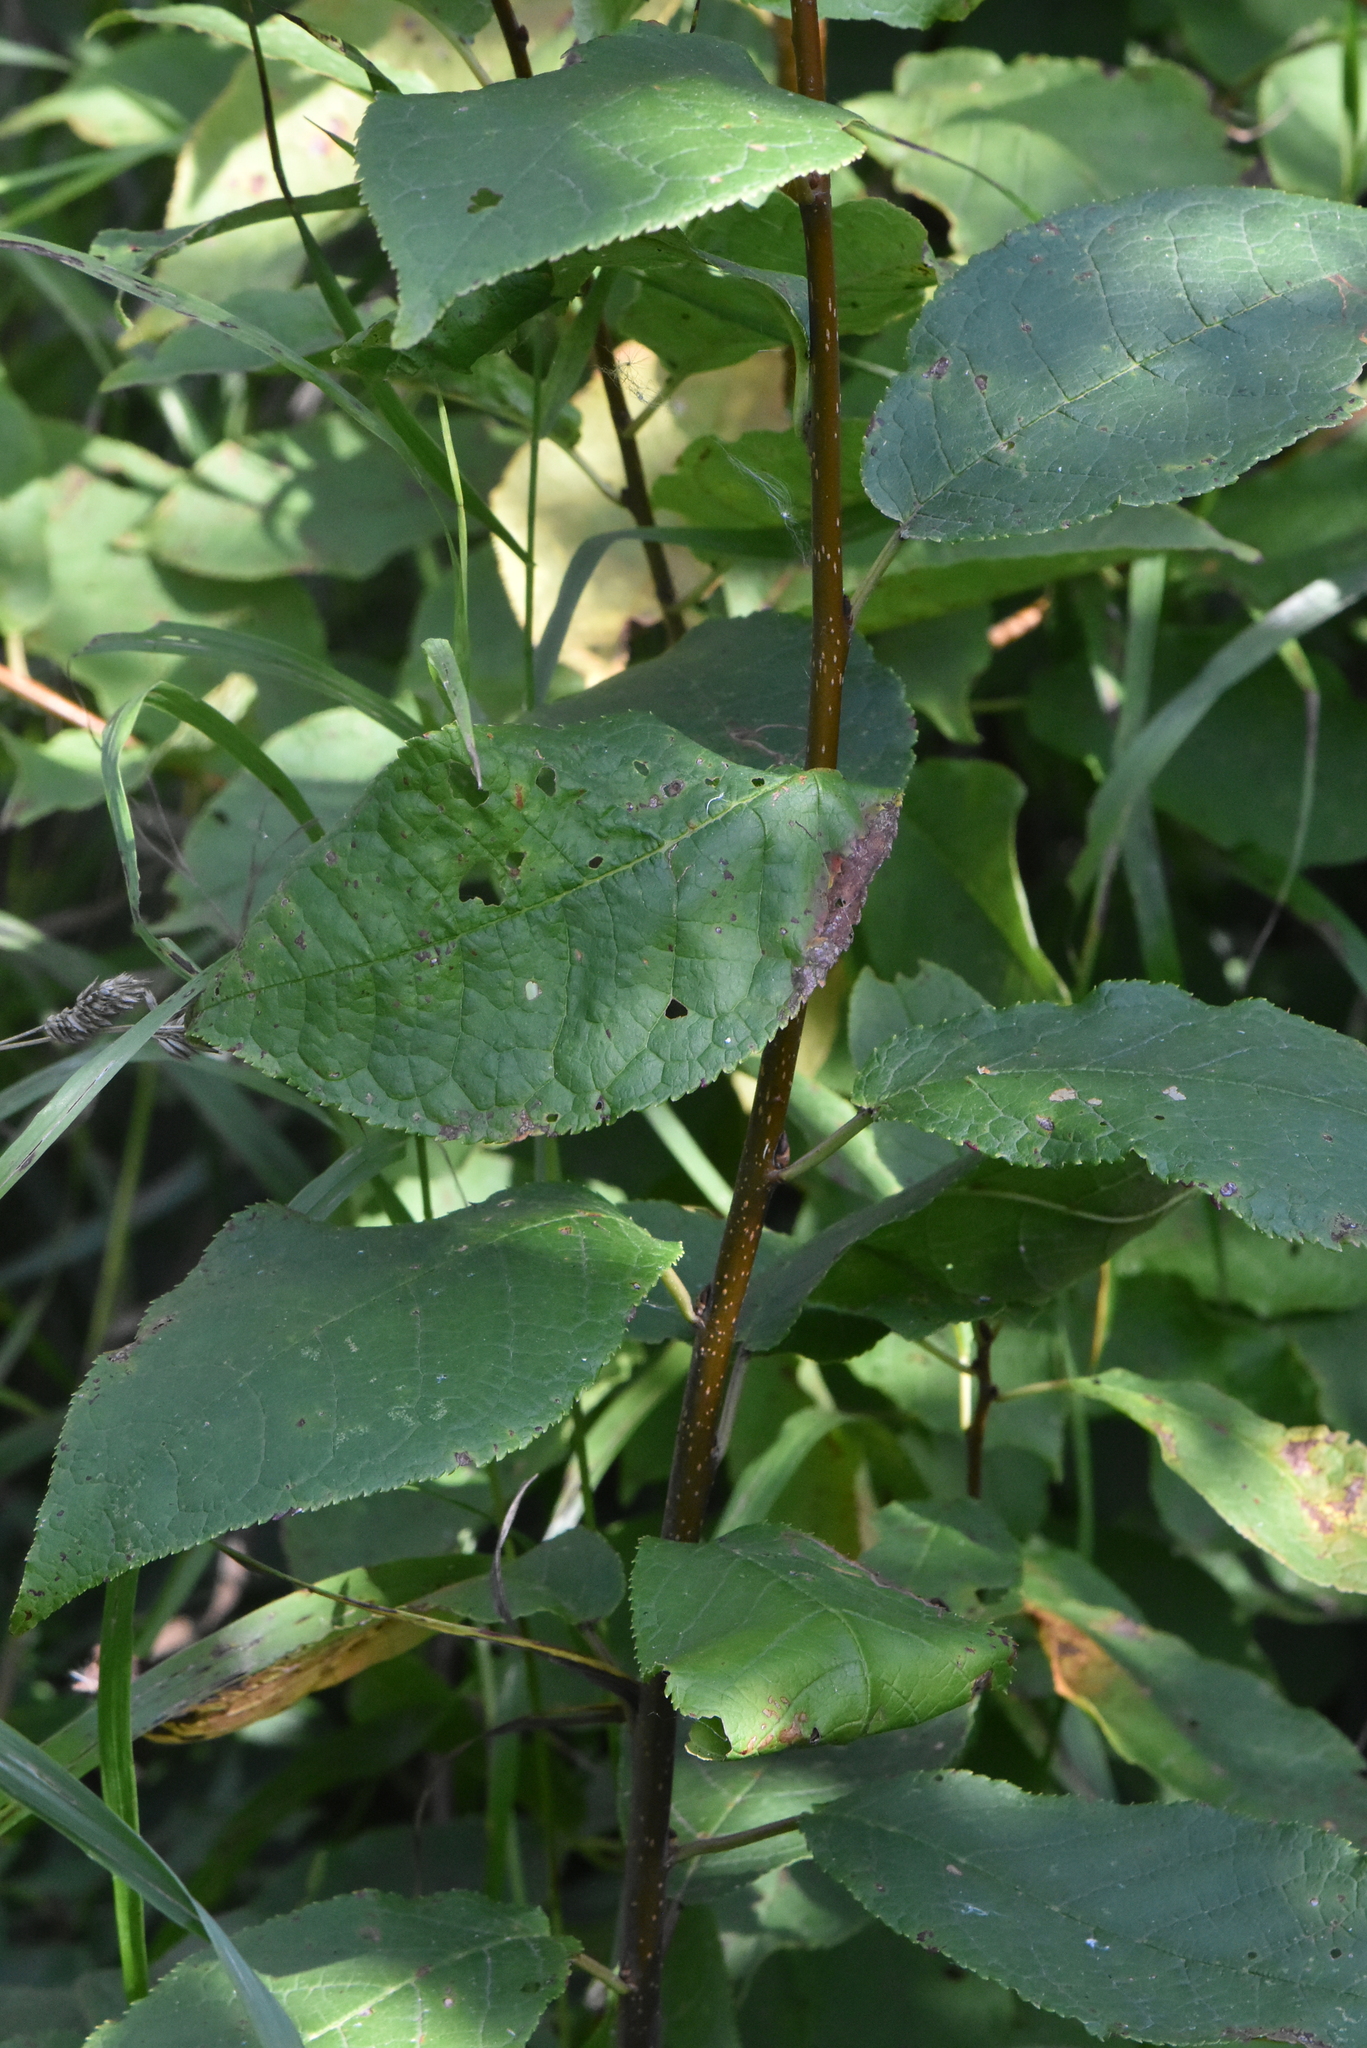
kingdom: Plantae
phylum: Tracheophyta
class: Magnoliopsida
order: Rosales
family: Rosaceae
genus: Prunus
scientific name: Prunus padus
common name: Bird cherry
